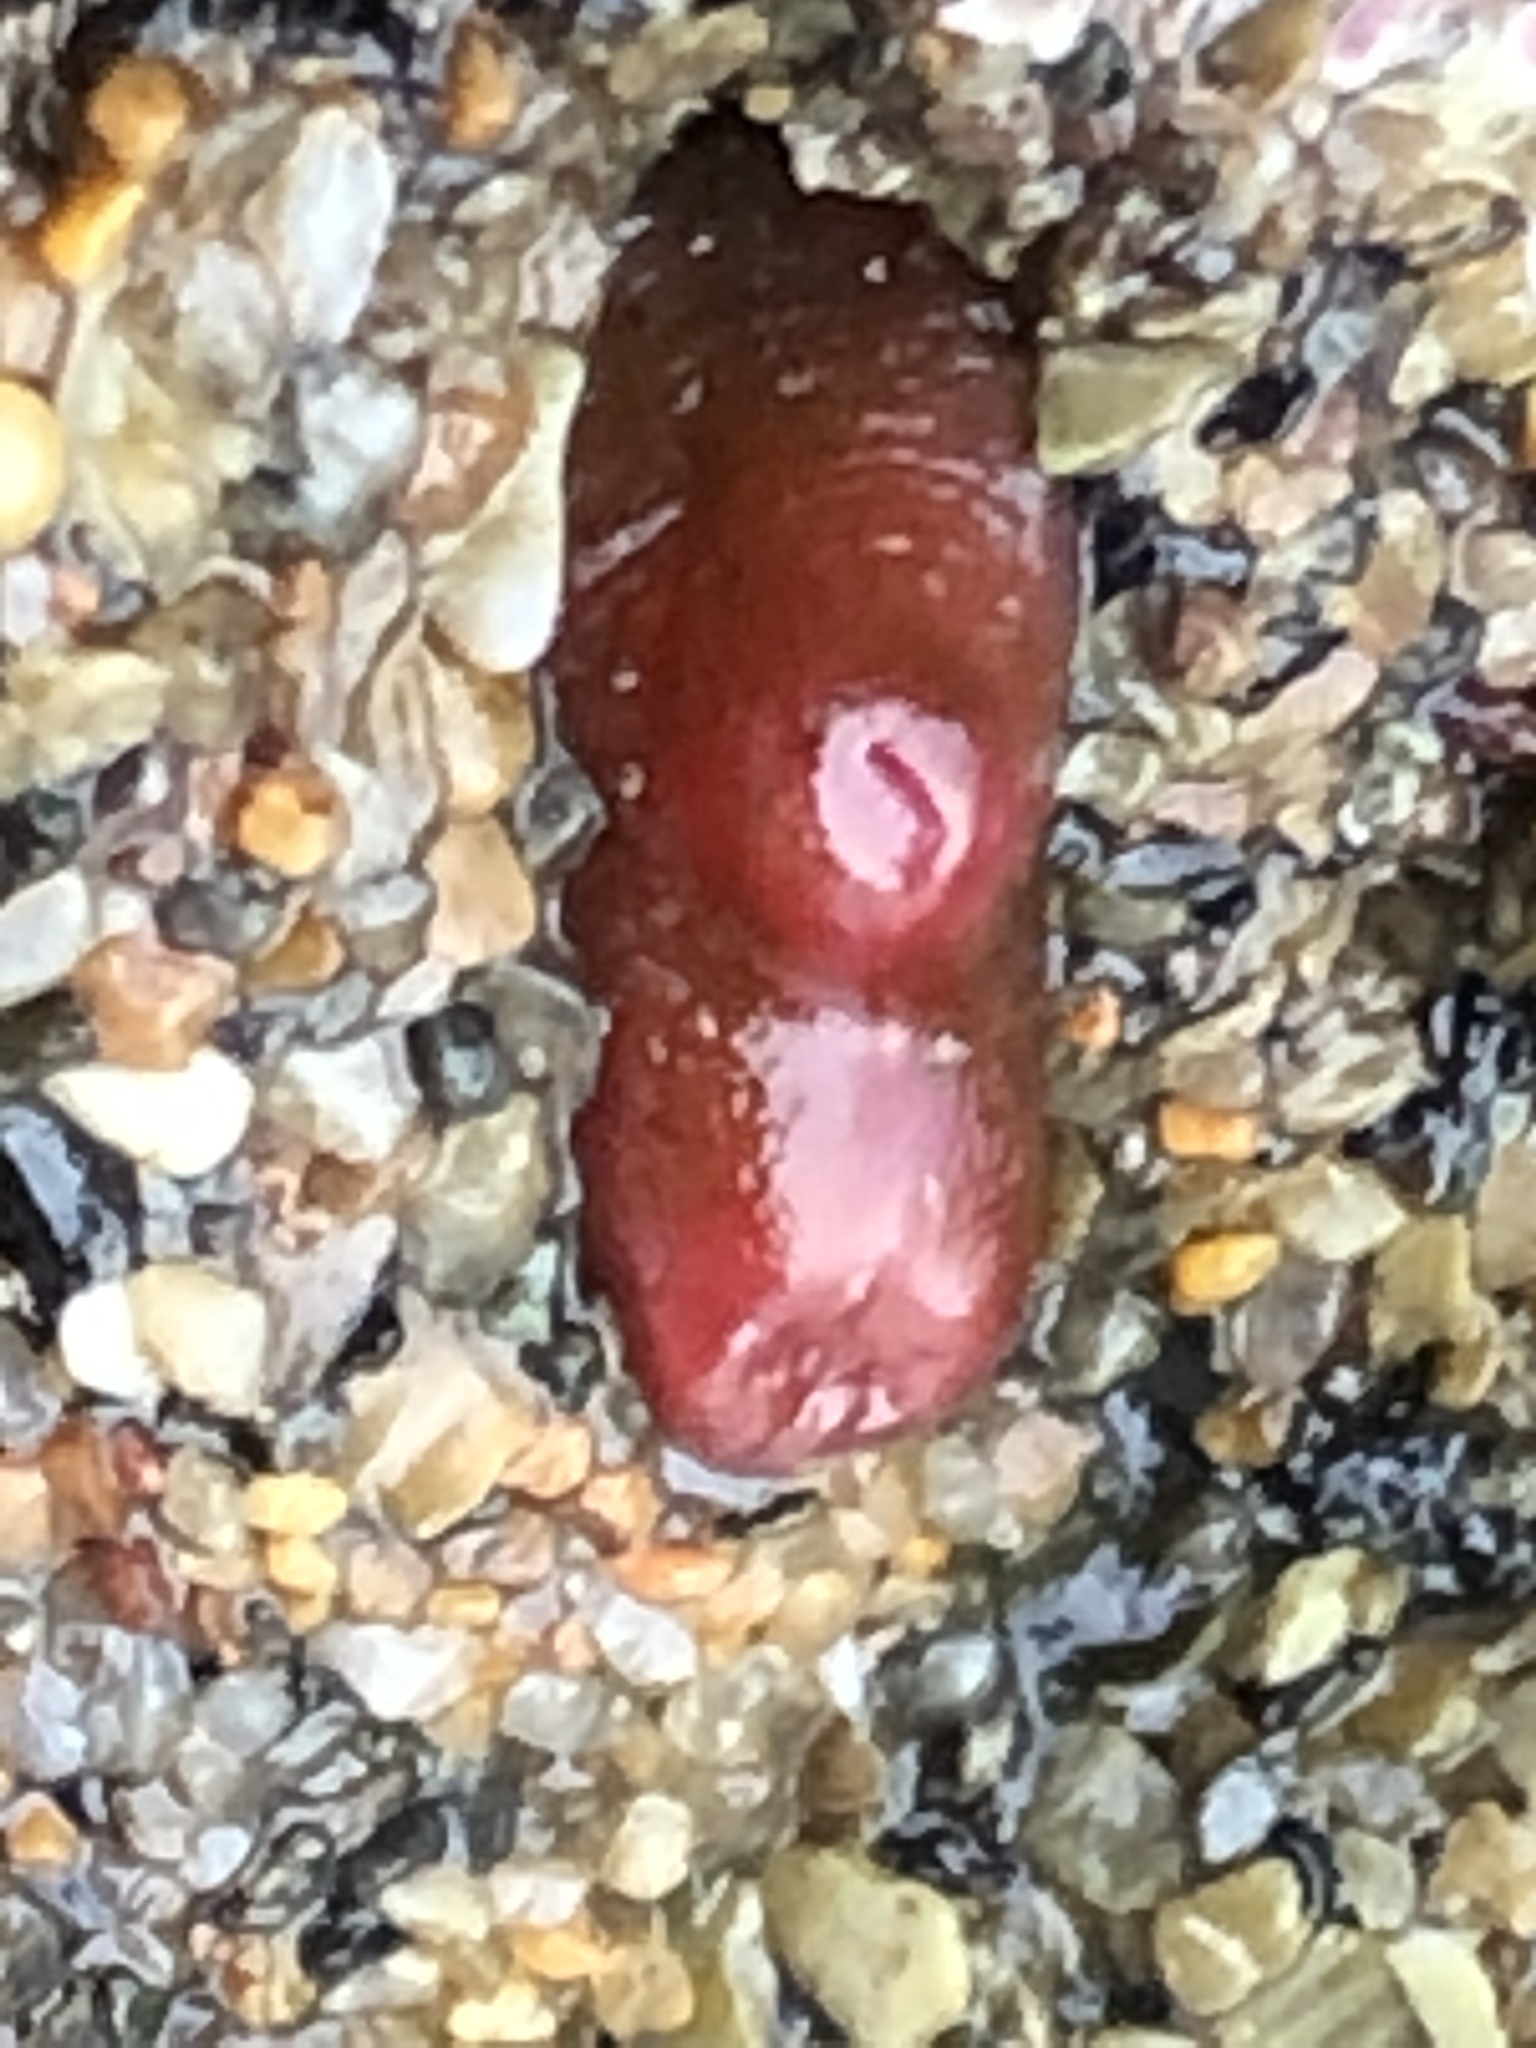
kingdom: Animalia
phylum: Mollusca
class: Bivalvia
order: Adapedonta
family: Hiatellidae
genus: Hiatella
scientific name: Hiatella arctica
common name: Arctic hiatella
